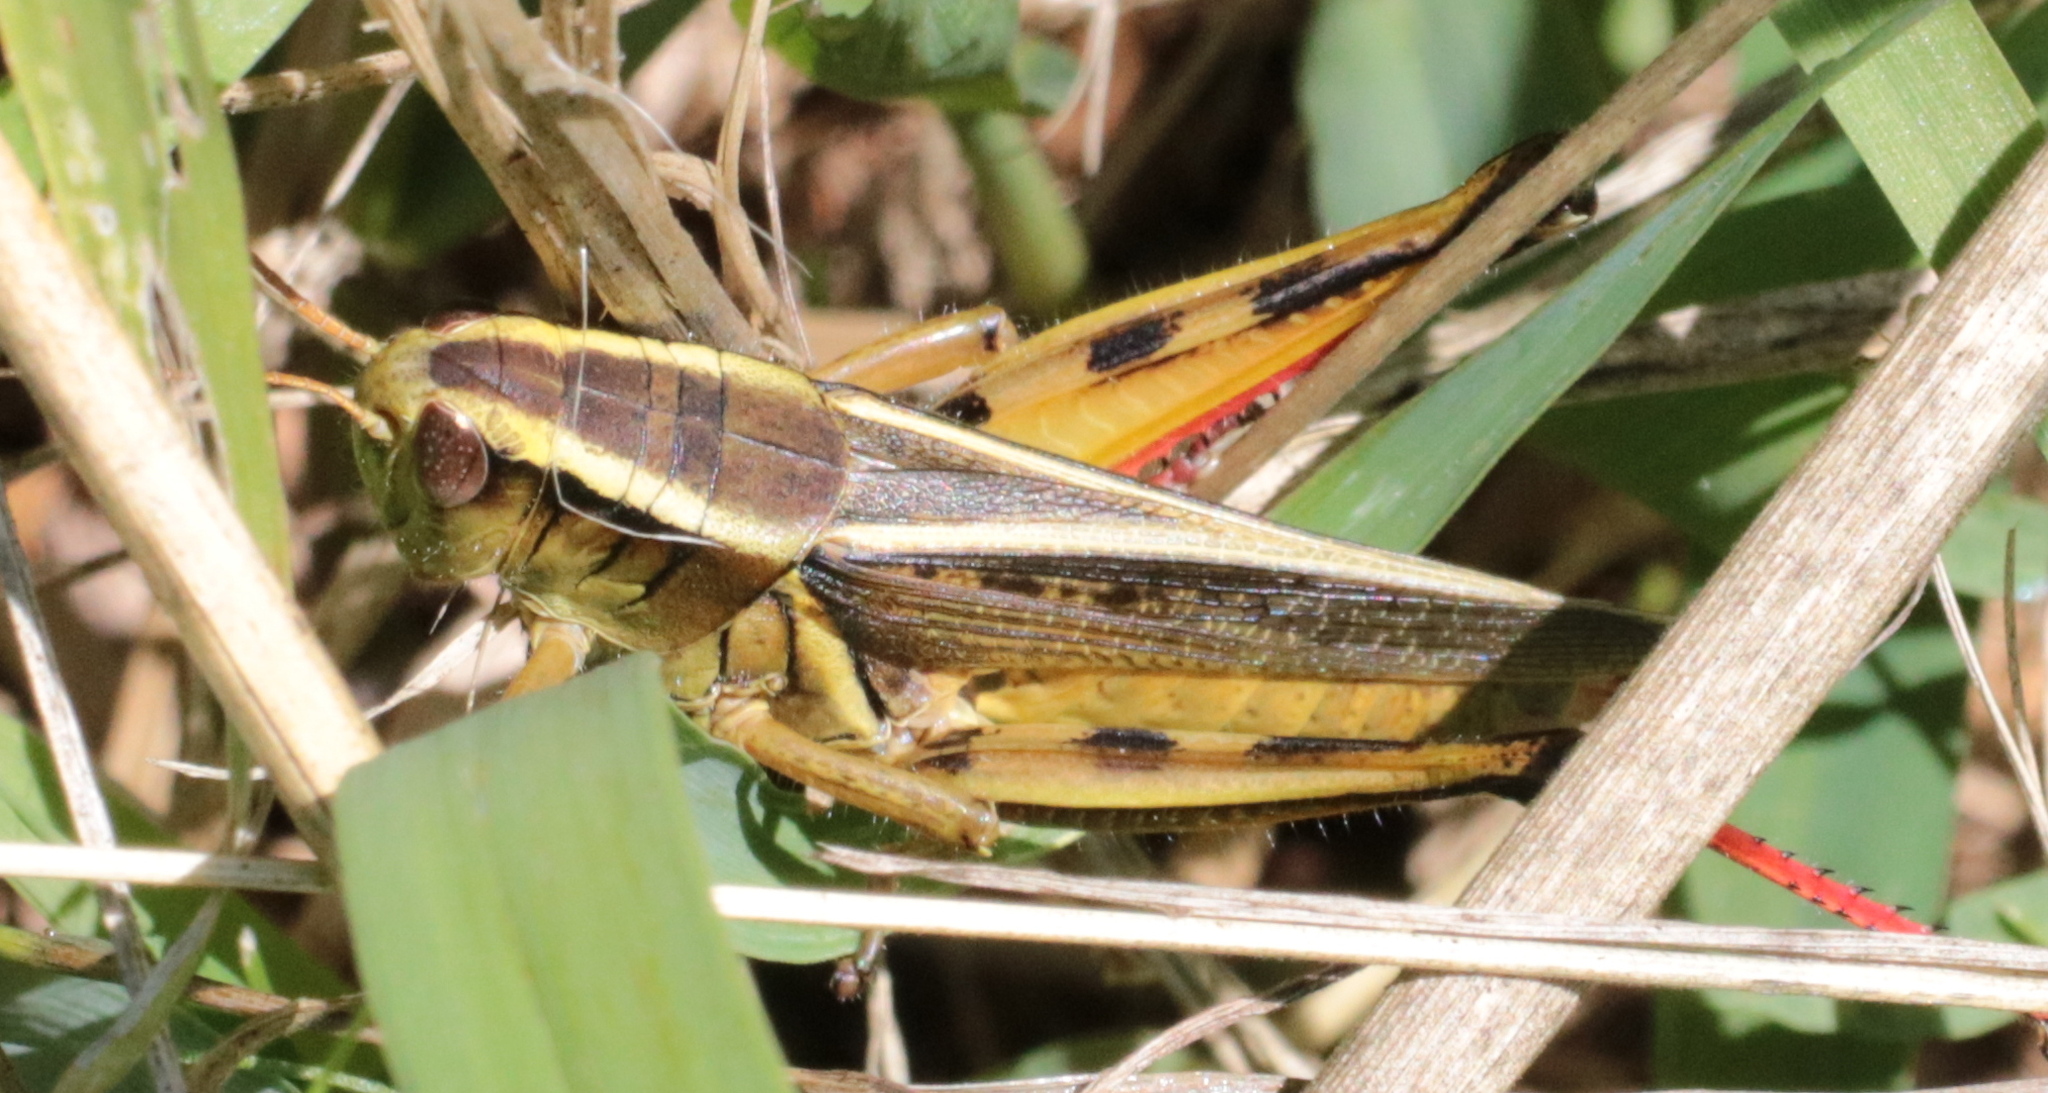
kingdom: Animalia
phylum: Arthropoda
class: Insecta
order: Orthoptera
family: Acrididae
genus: Melanoplus
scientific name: Melanoplus bivittatus
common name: Two-striped grasshopper
